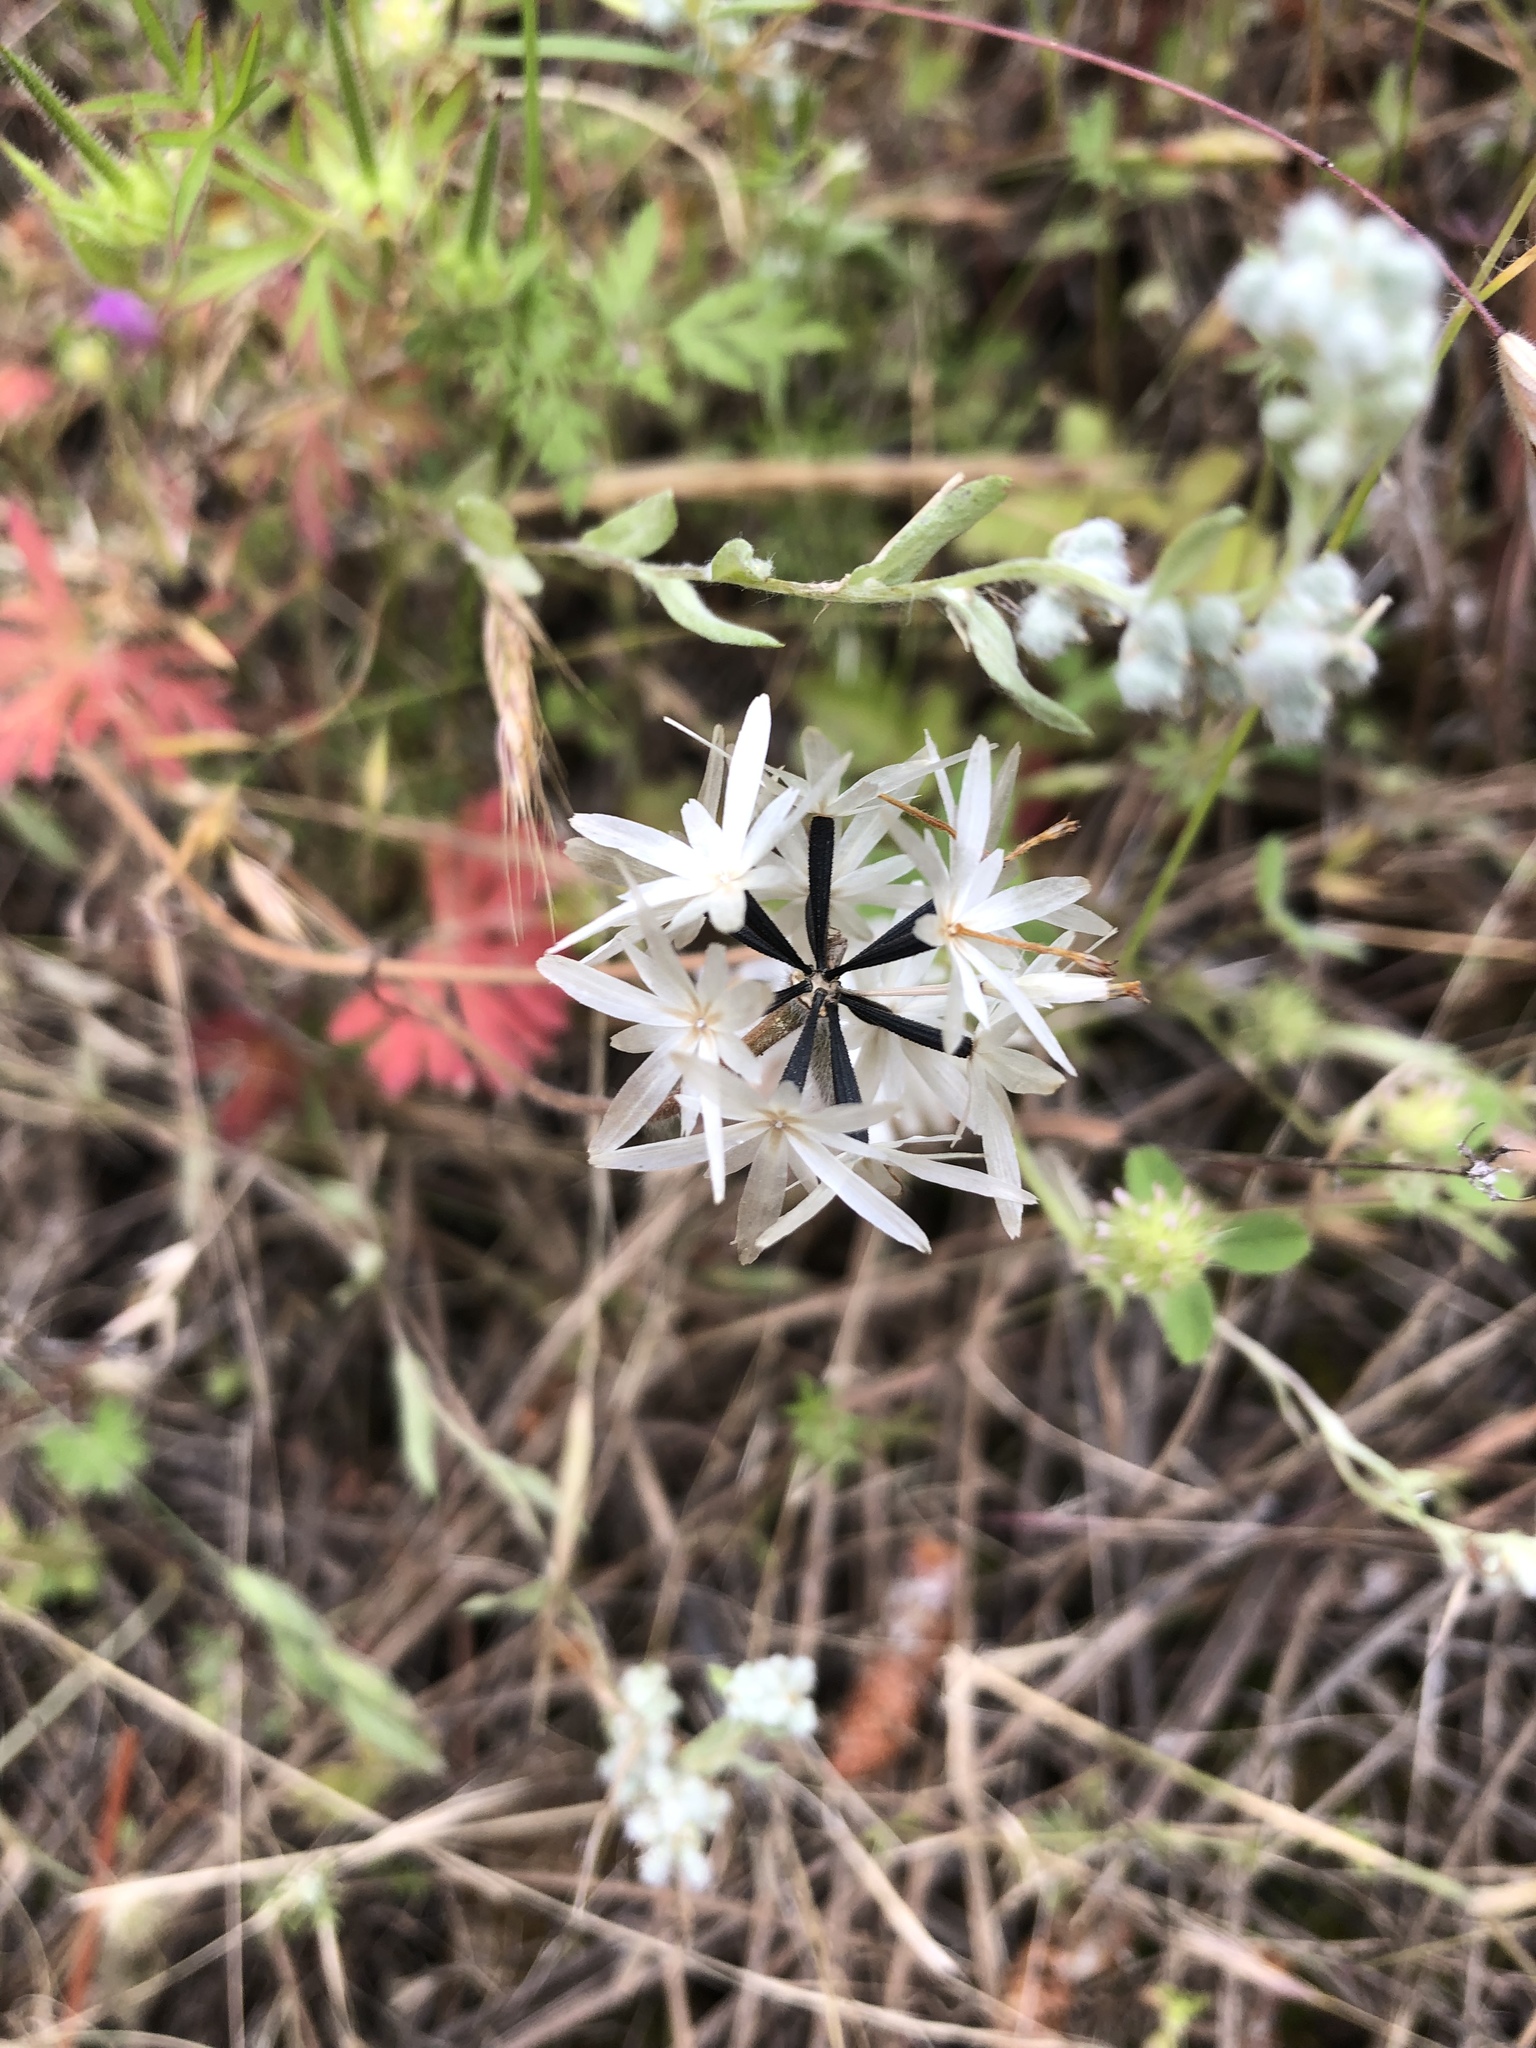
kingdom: Plantae
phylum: Tracheophyta
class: Magnoliopsida
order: Asterales
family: Asteraceae
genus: Achyrachaena
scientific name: Achyrachaena mollis
